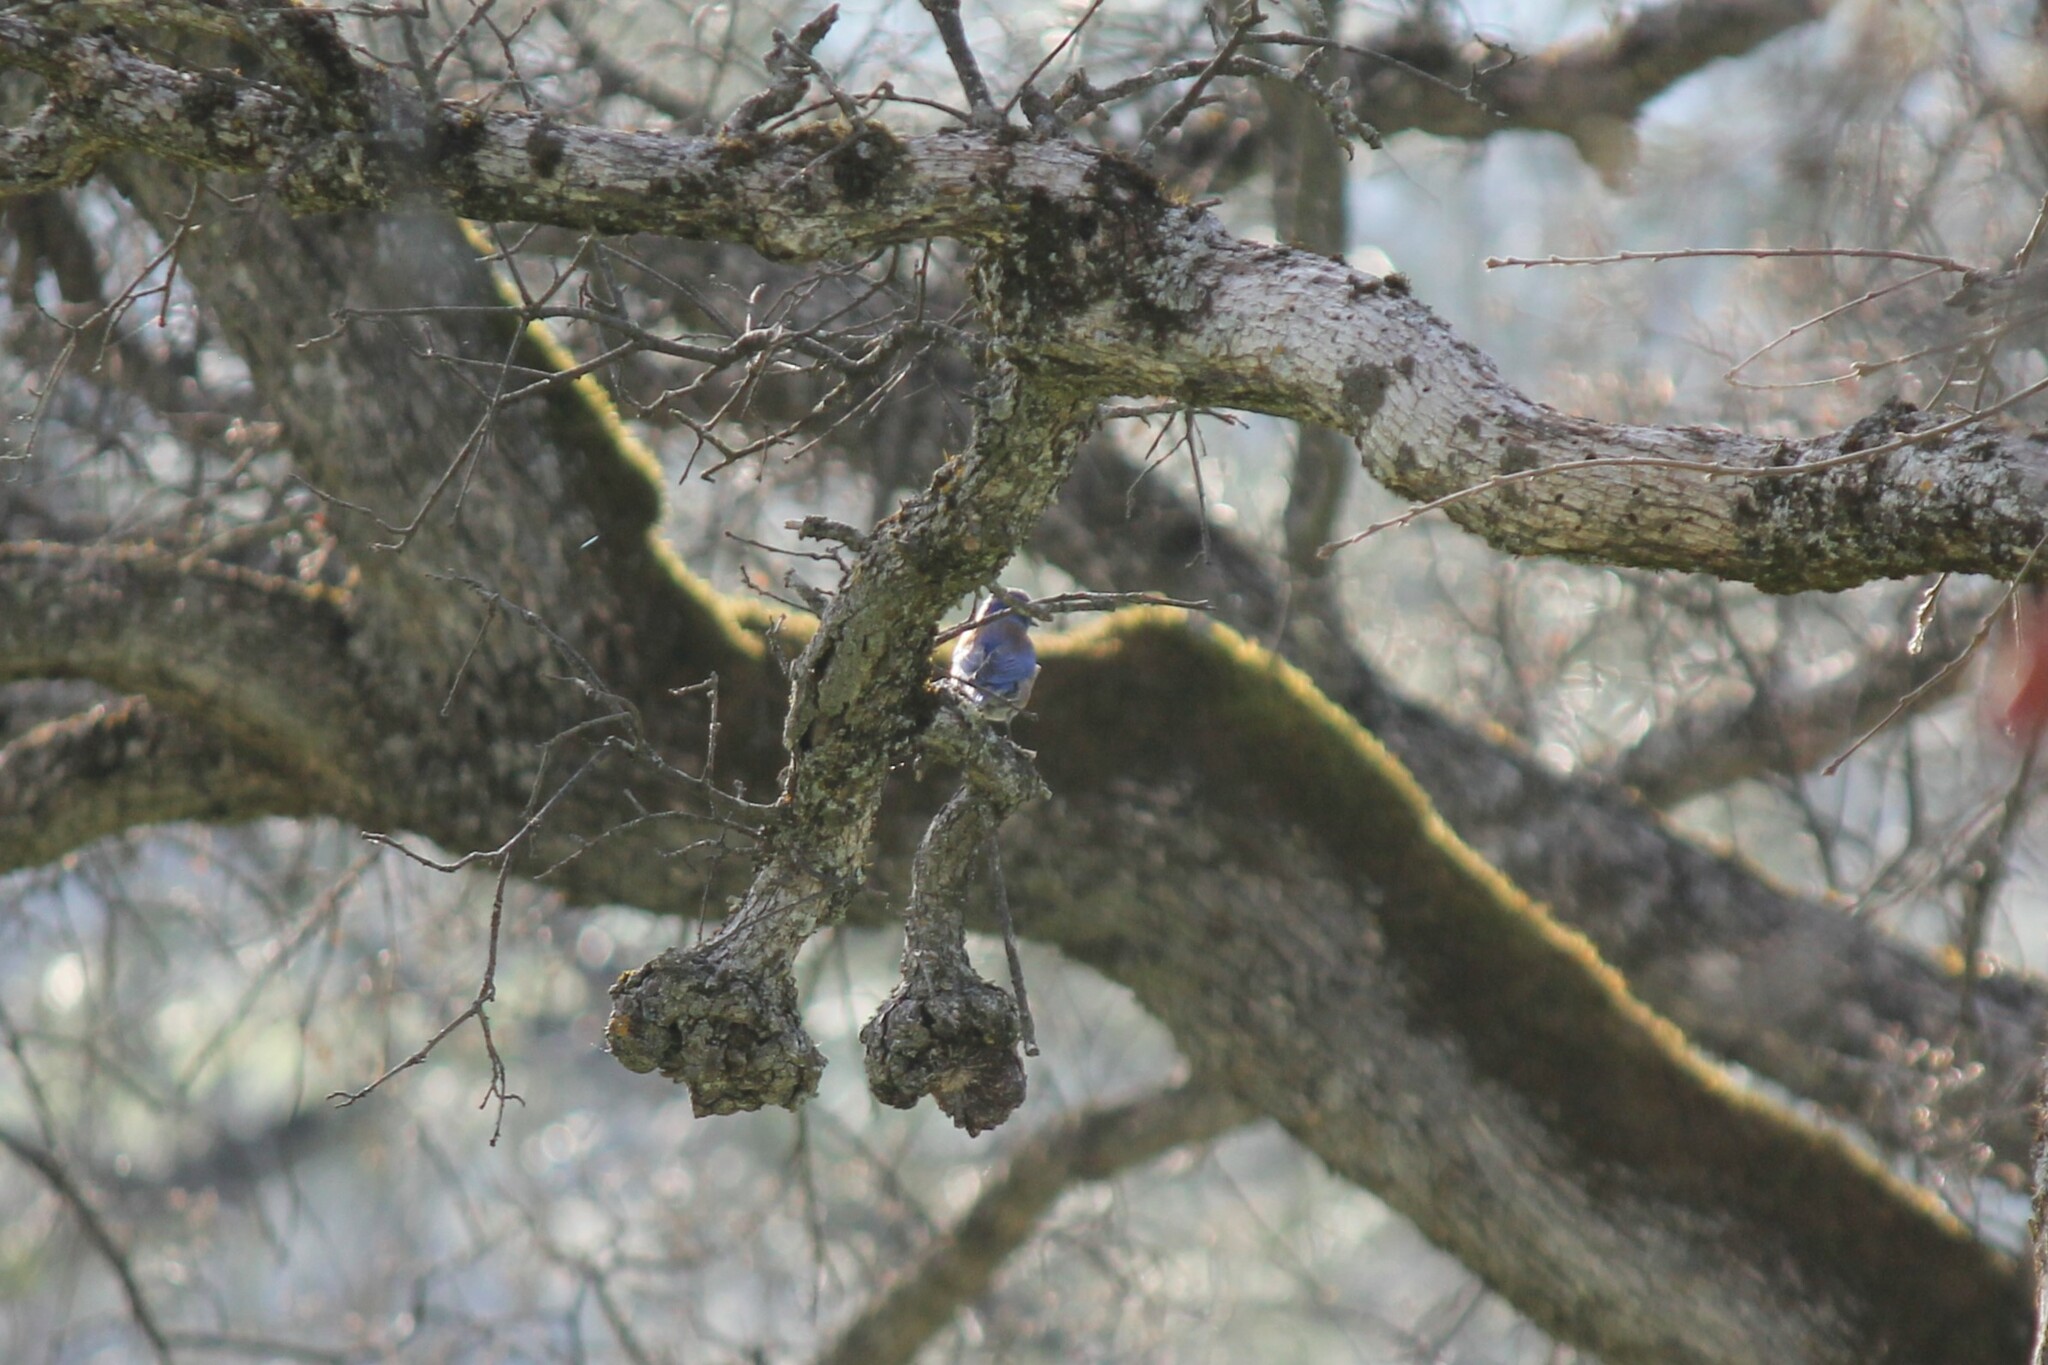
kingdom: Animalia
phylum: Chordata
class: Aves
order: Passeriformes
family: Turdidae
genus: Sialia
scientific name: Sialia mexicana
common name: Western bluebird
